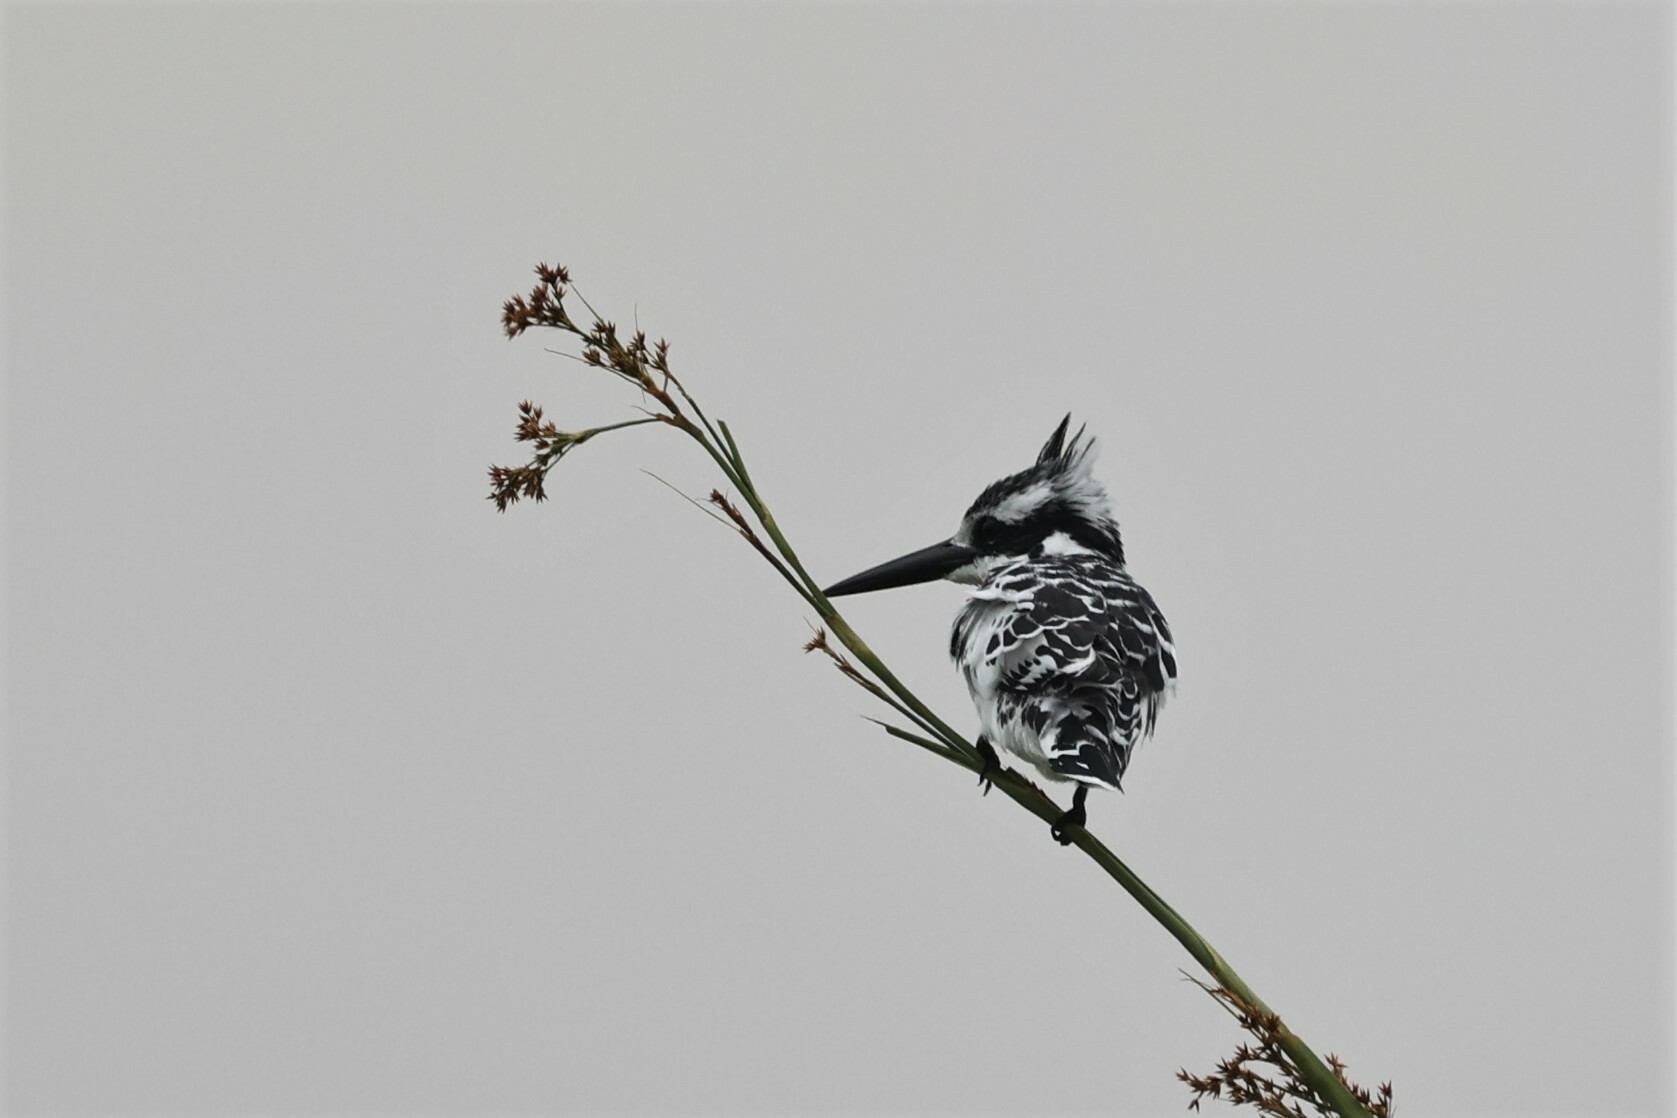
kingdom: Animalia
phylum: Chordata
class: Aves
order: Coraciiformes
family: Alcedinidae
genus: Ceryle
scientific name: Ceryle rudis
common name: Pied kingfisher
